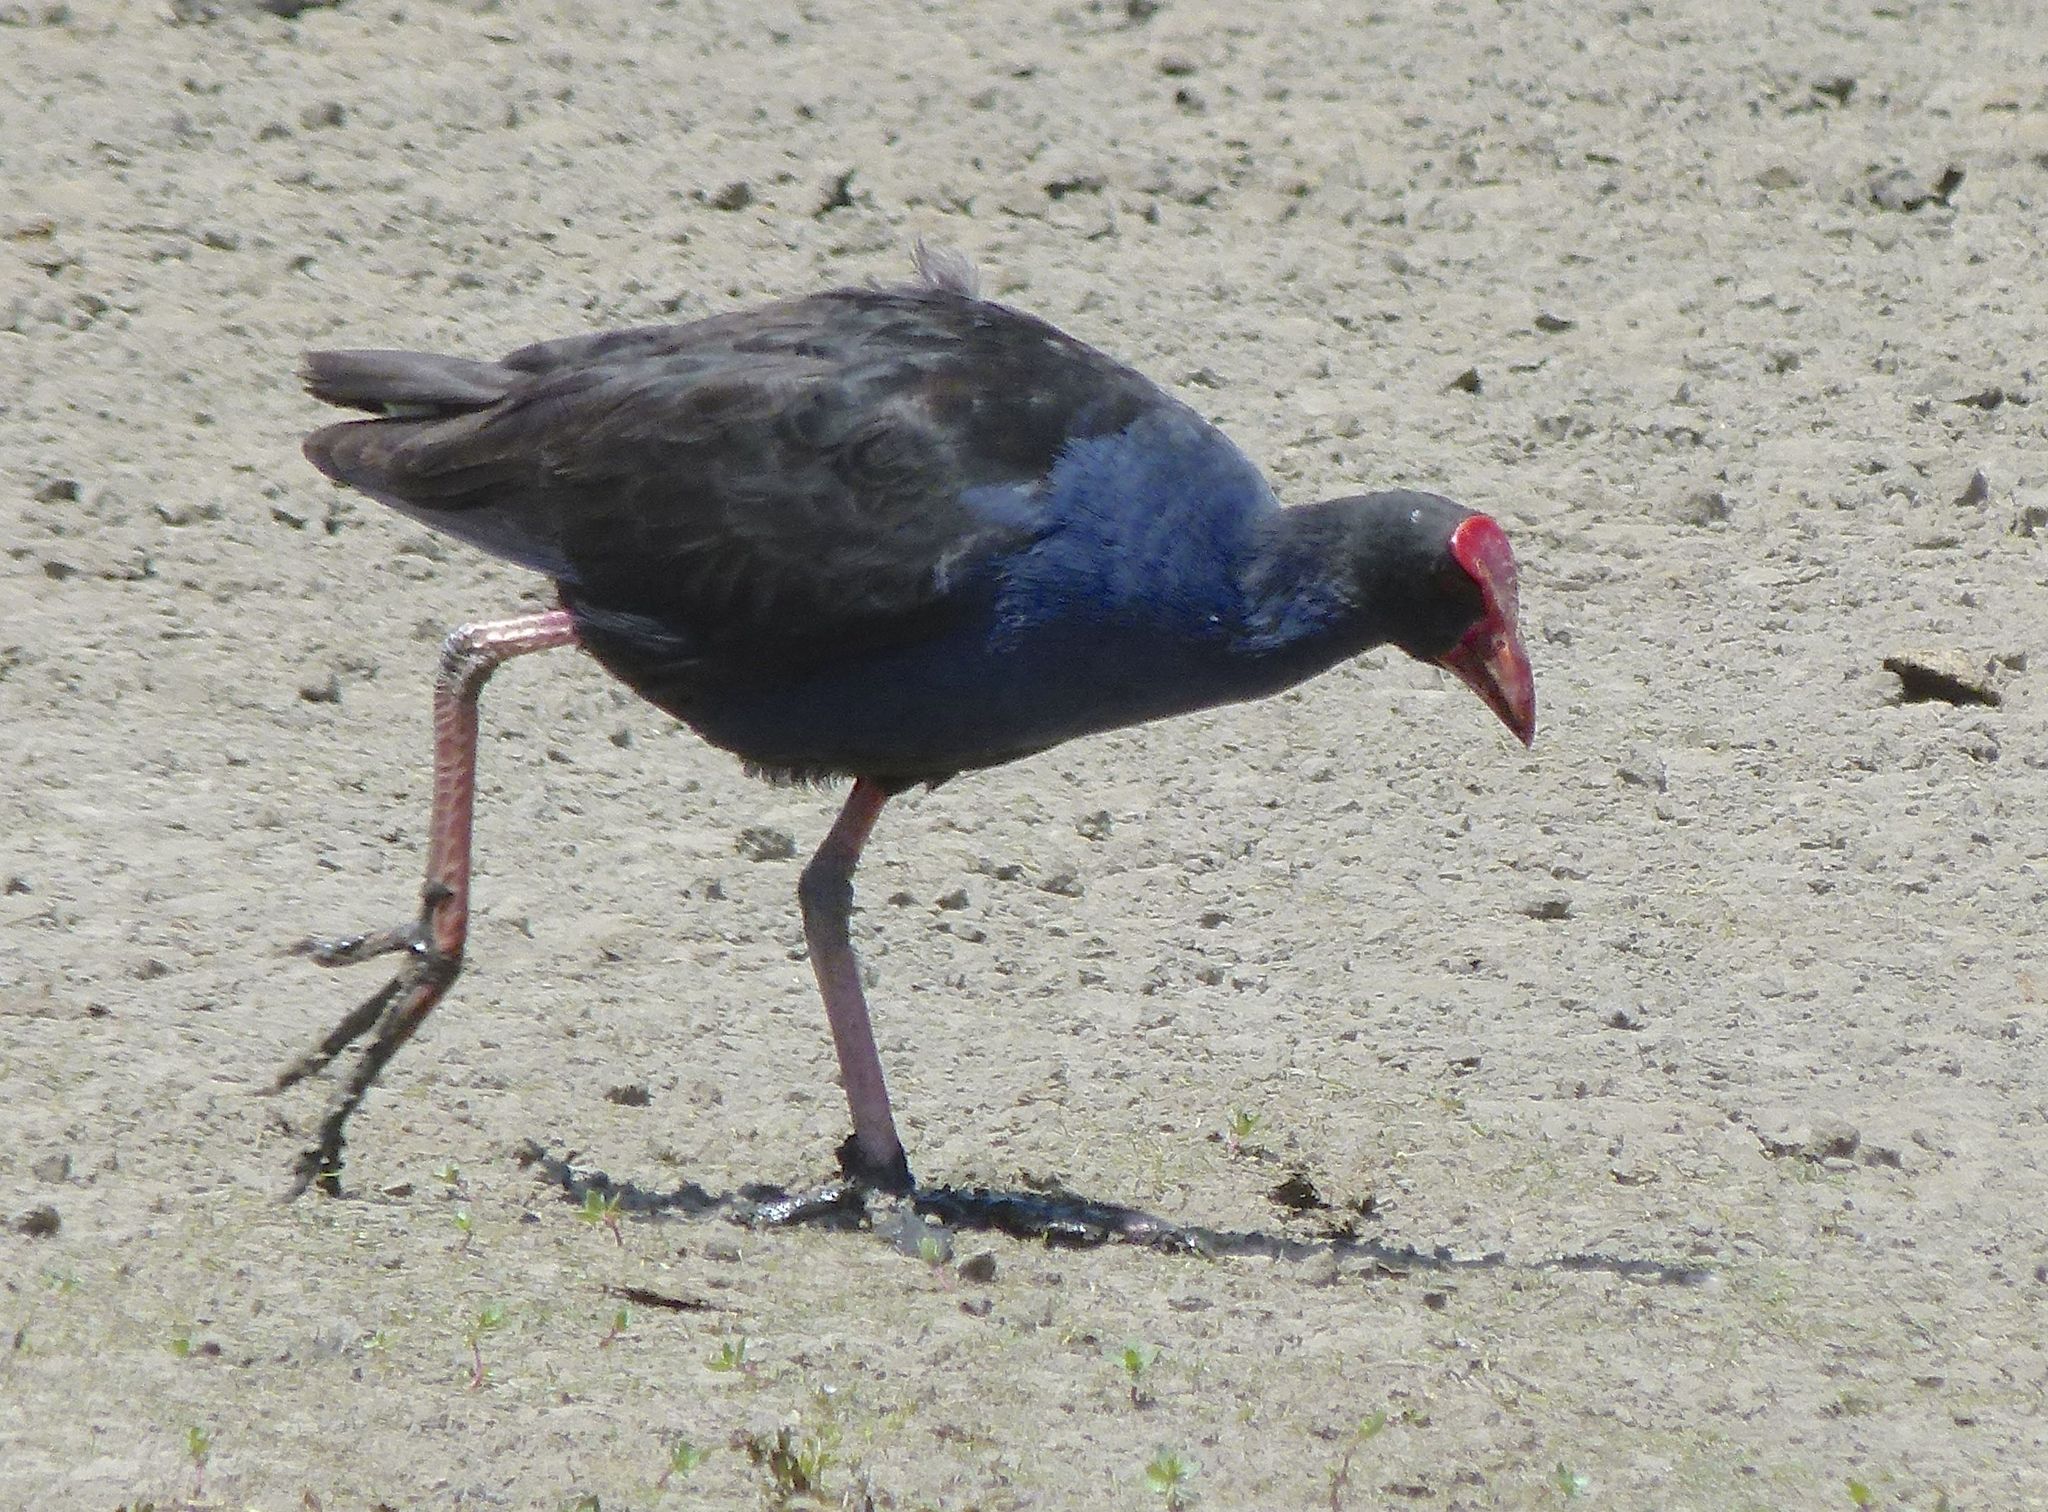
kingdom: Animalia
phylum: Chordata
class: Aves
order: Gruiformes
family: Rallidae
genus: Porphyrio
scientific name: Porphyrio melanotus
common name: Australasian swamphen
